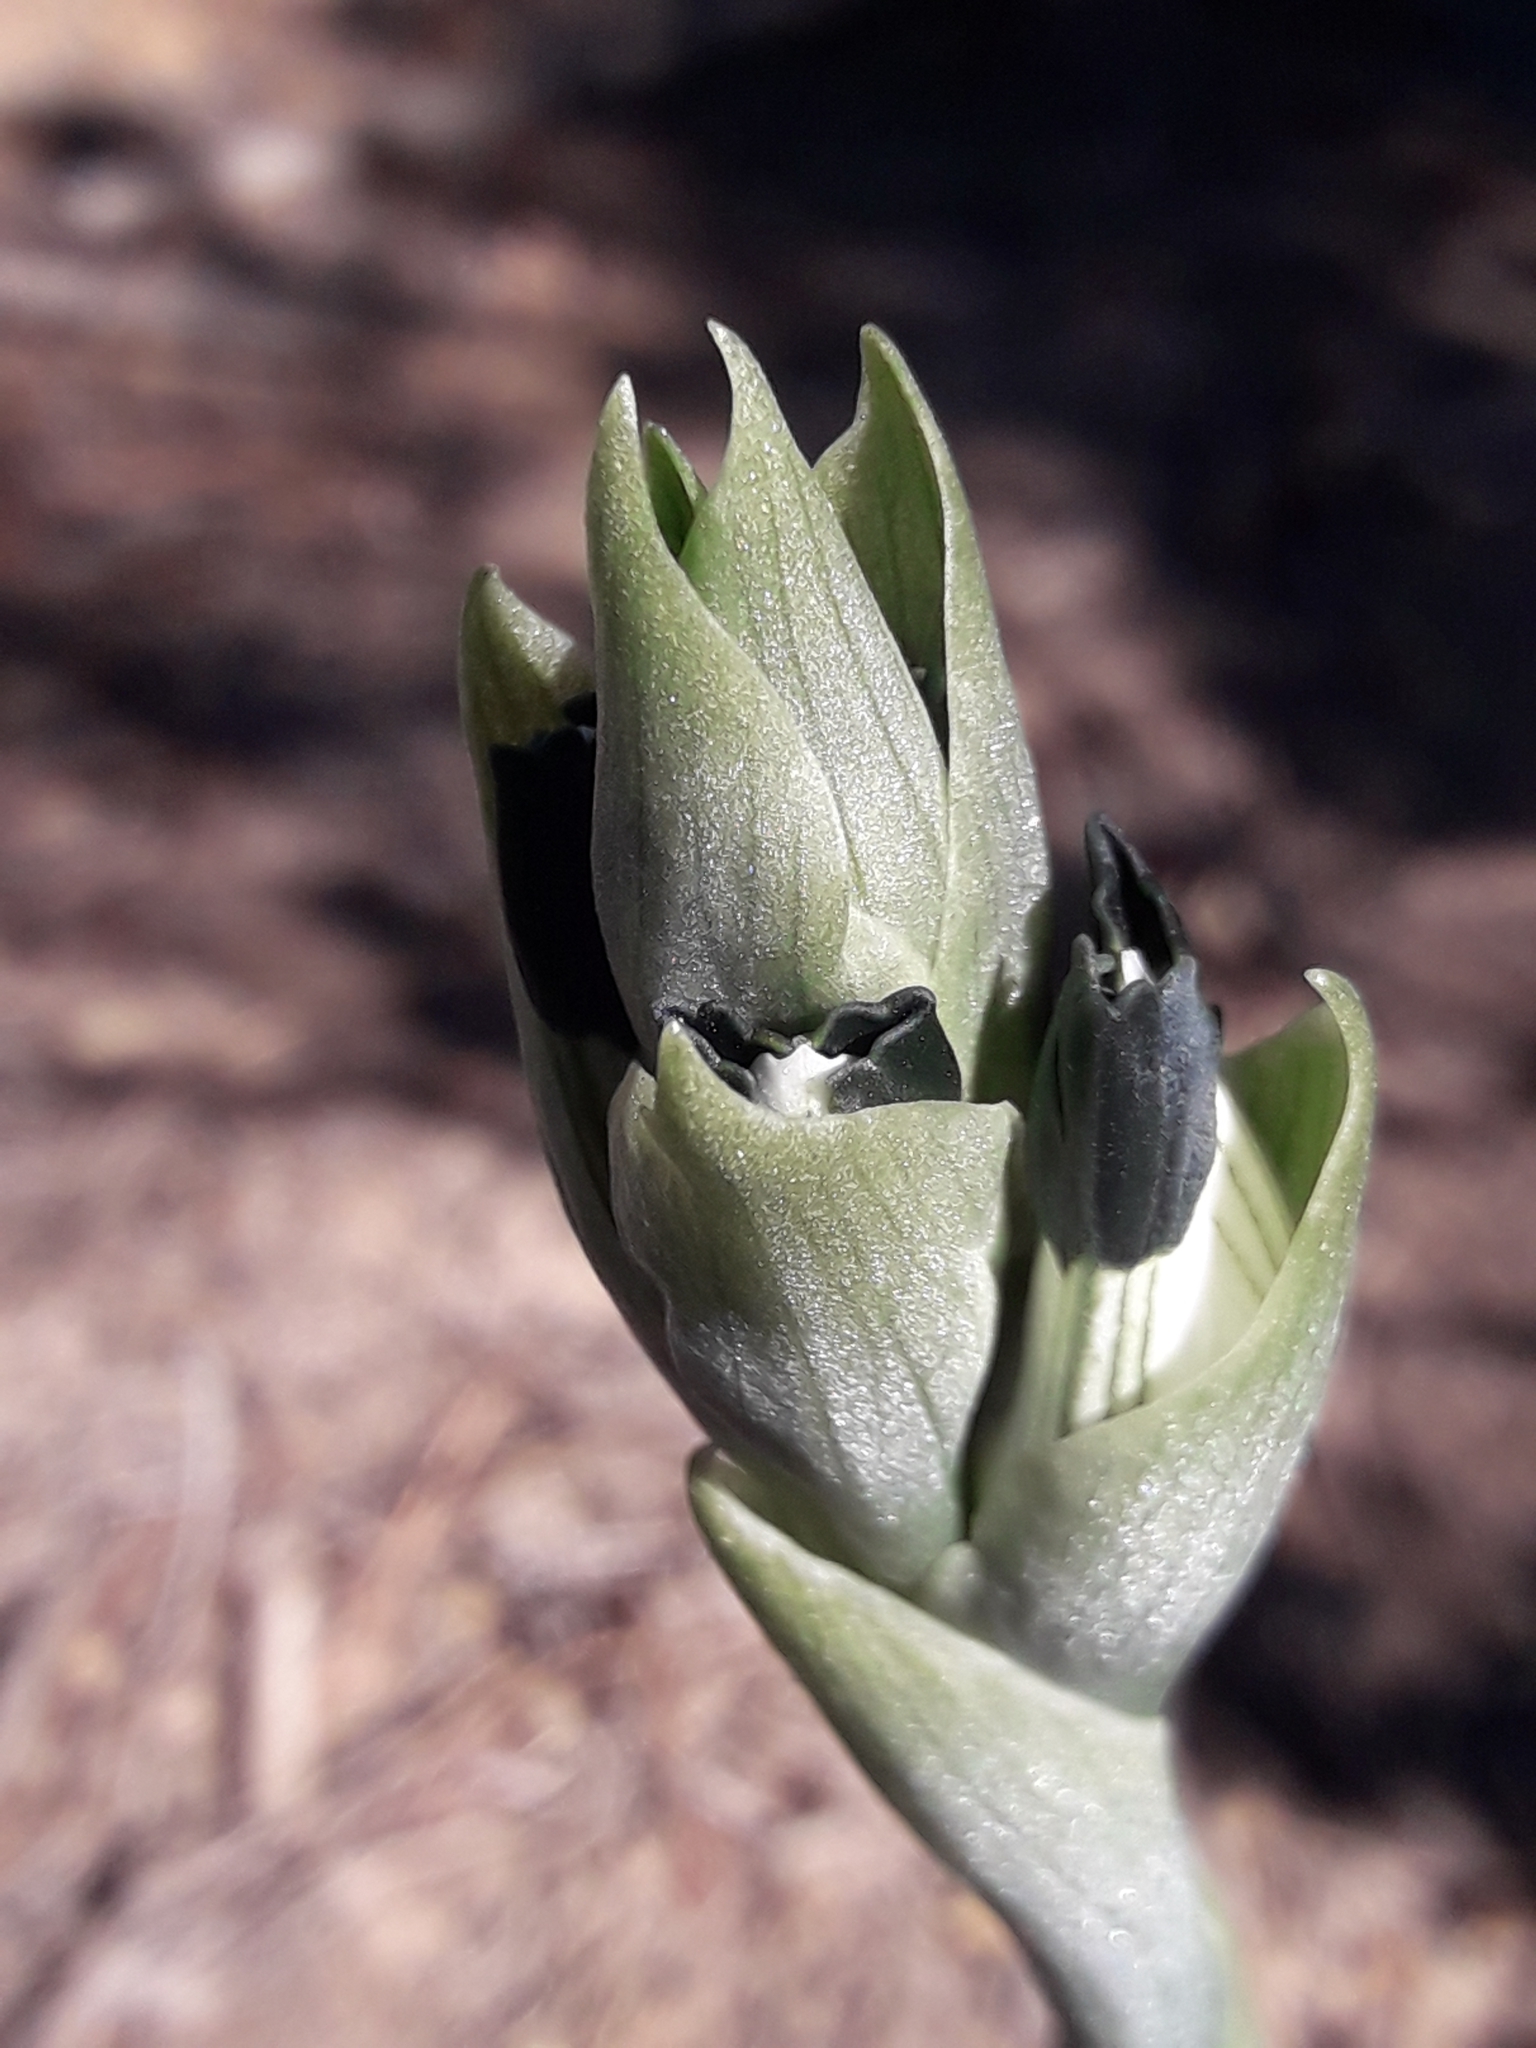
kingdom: Plantae
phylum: Tracheophyta
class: Liliopsida
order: Asparagales
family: Orchidaceae
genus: Chloraea
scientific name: Chloraea bletioides
